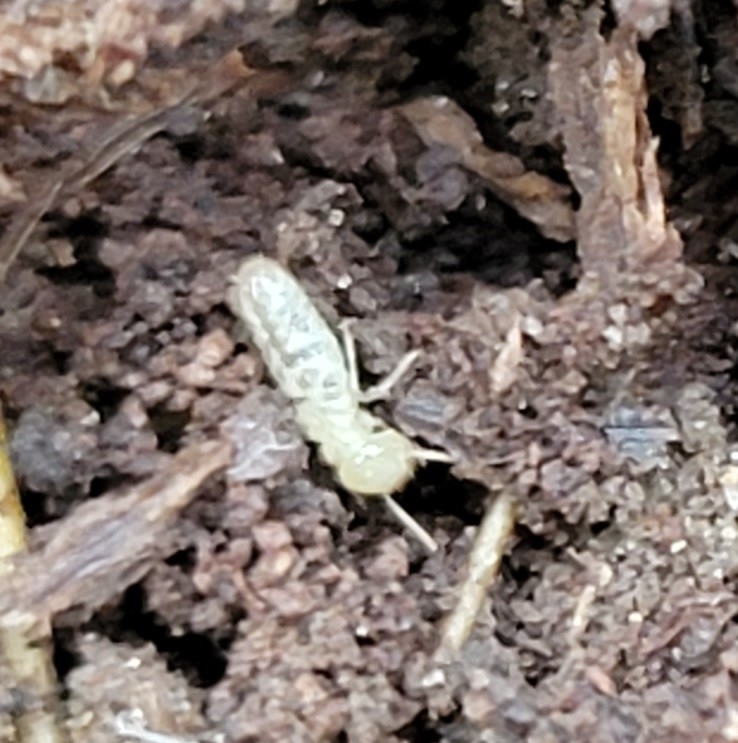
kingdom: Animalia
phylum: Arthropoda
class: Insecta
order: Blattodea
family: Rhinotermitidae
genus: Reticulitermes
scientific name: Reticulitermes flavipes
